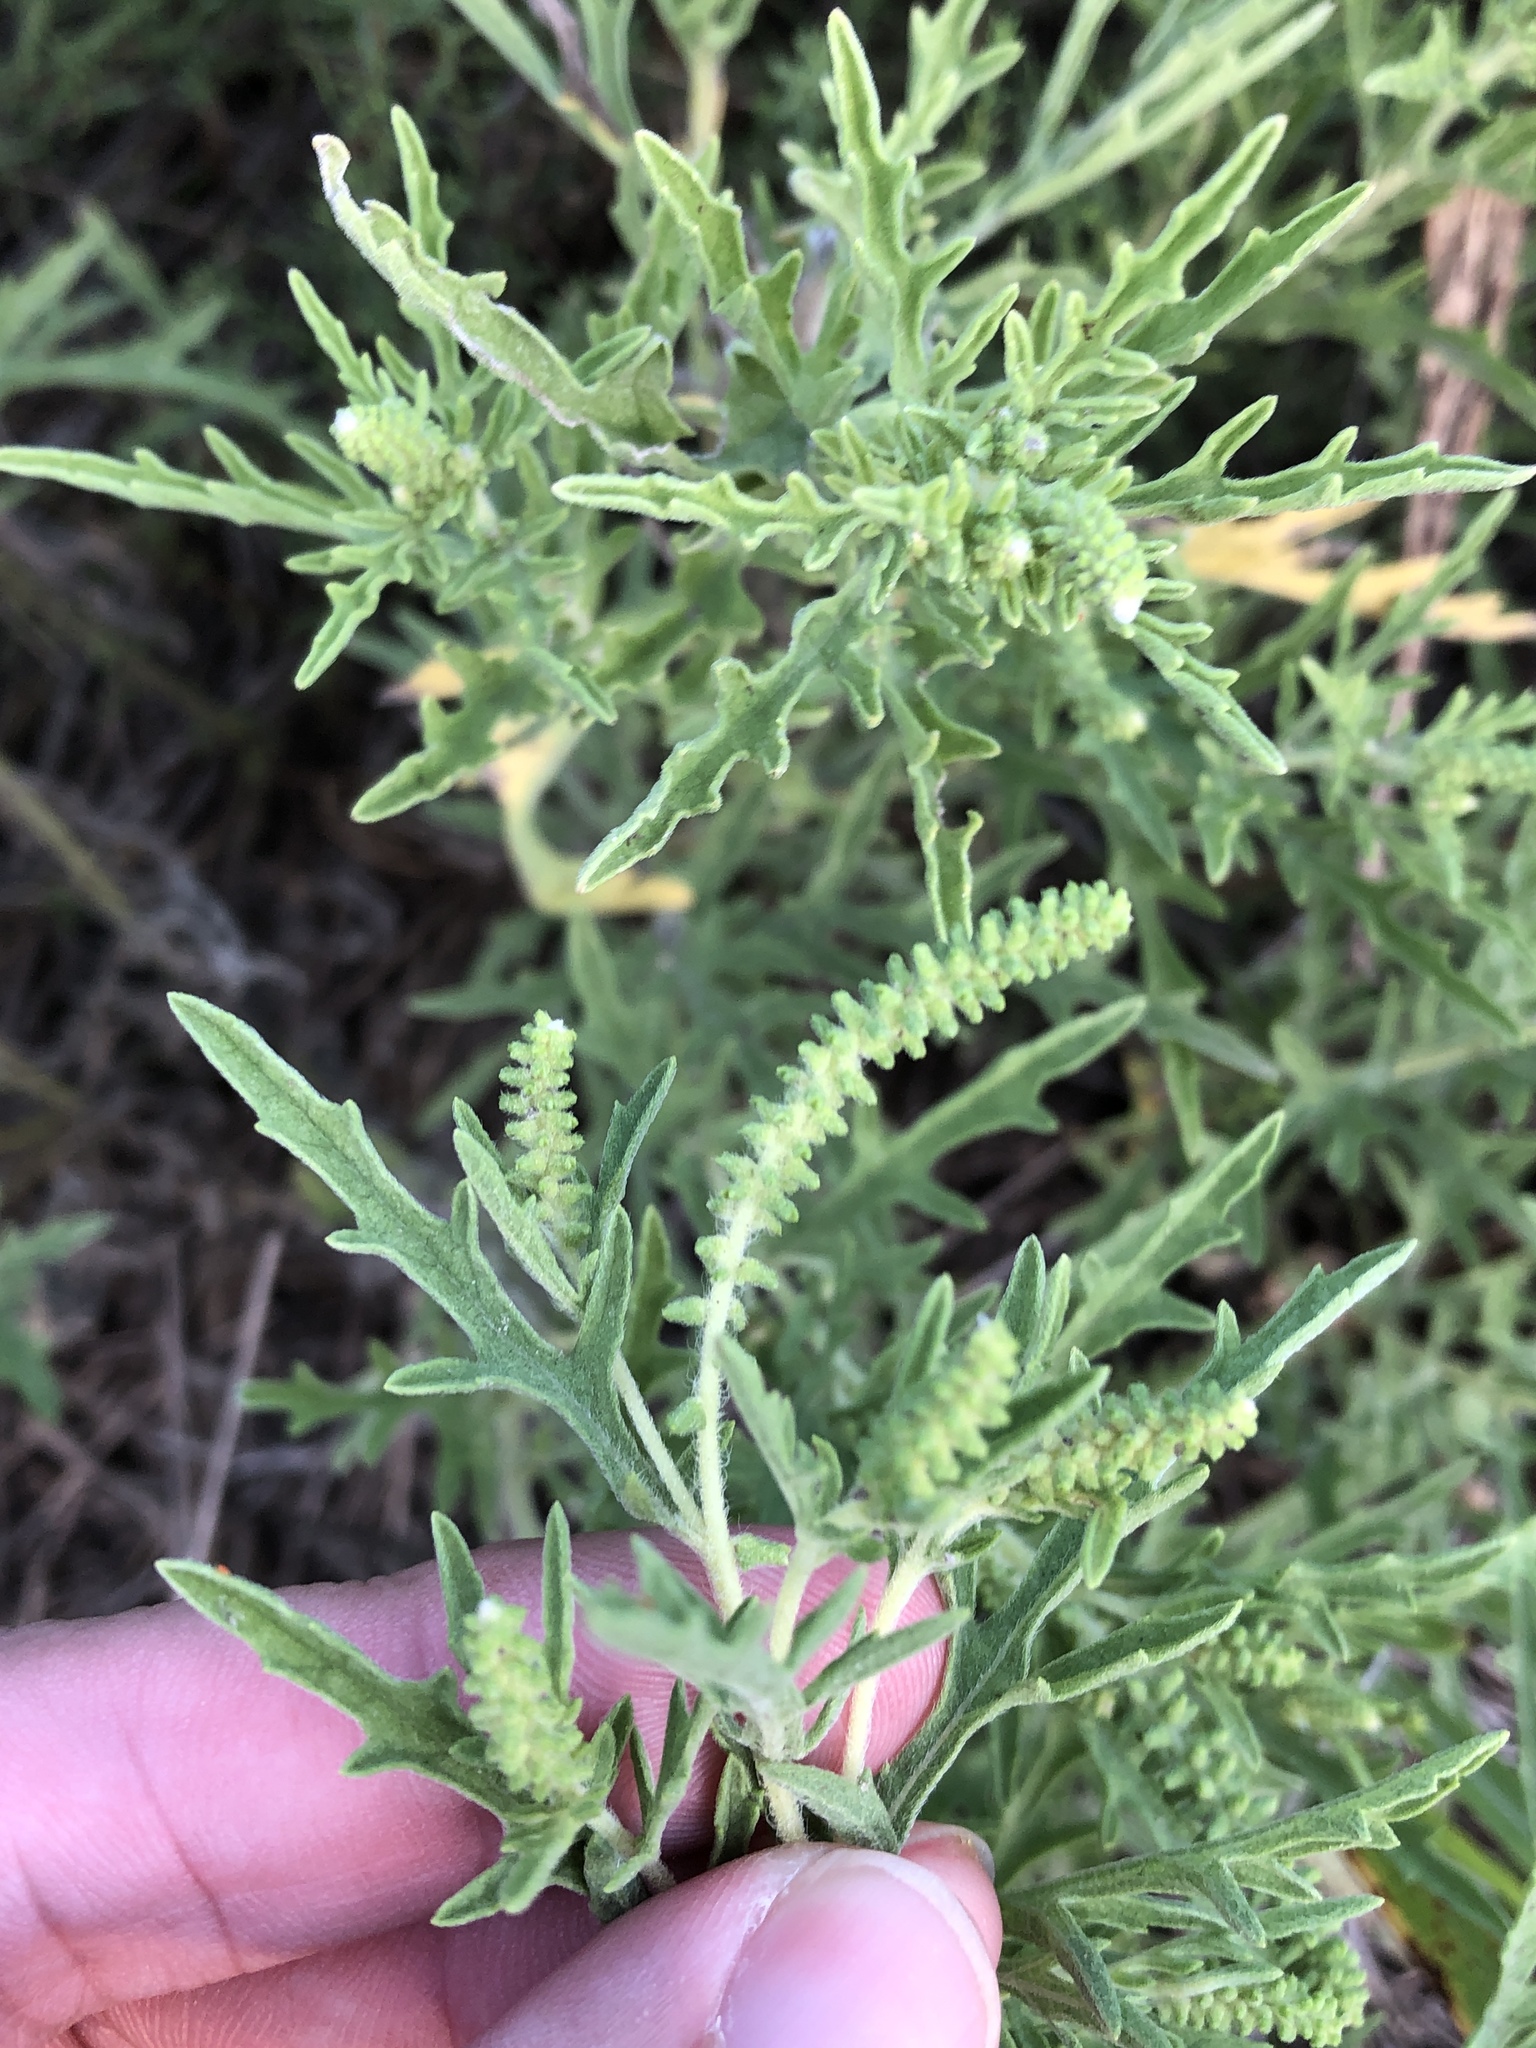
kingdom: Plantae
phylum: Tracheophyta
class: Magnoliopsida
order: Asterales
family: Asteraceae
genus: Ambrosia
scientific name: Ambrosia psilostachya
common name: Perennial ragweed
